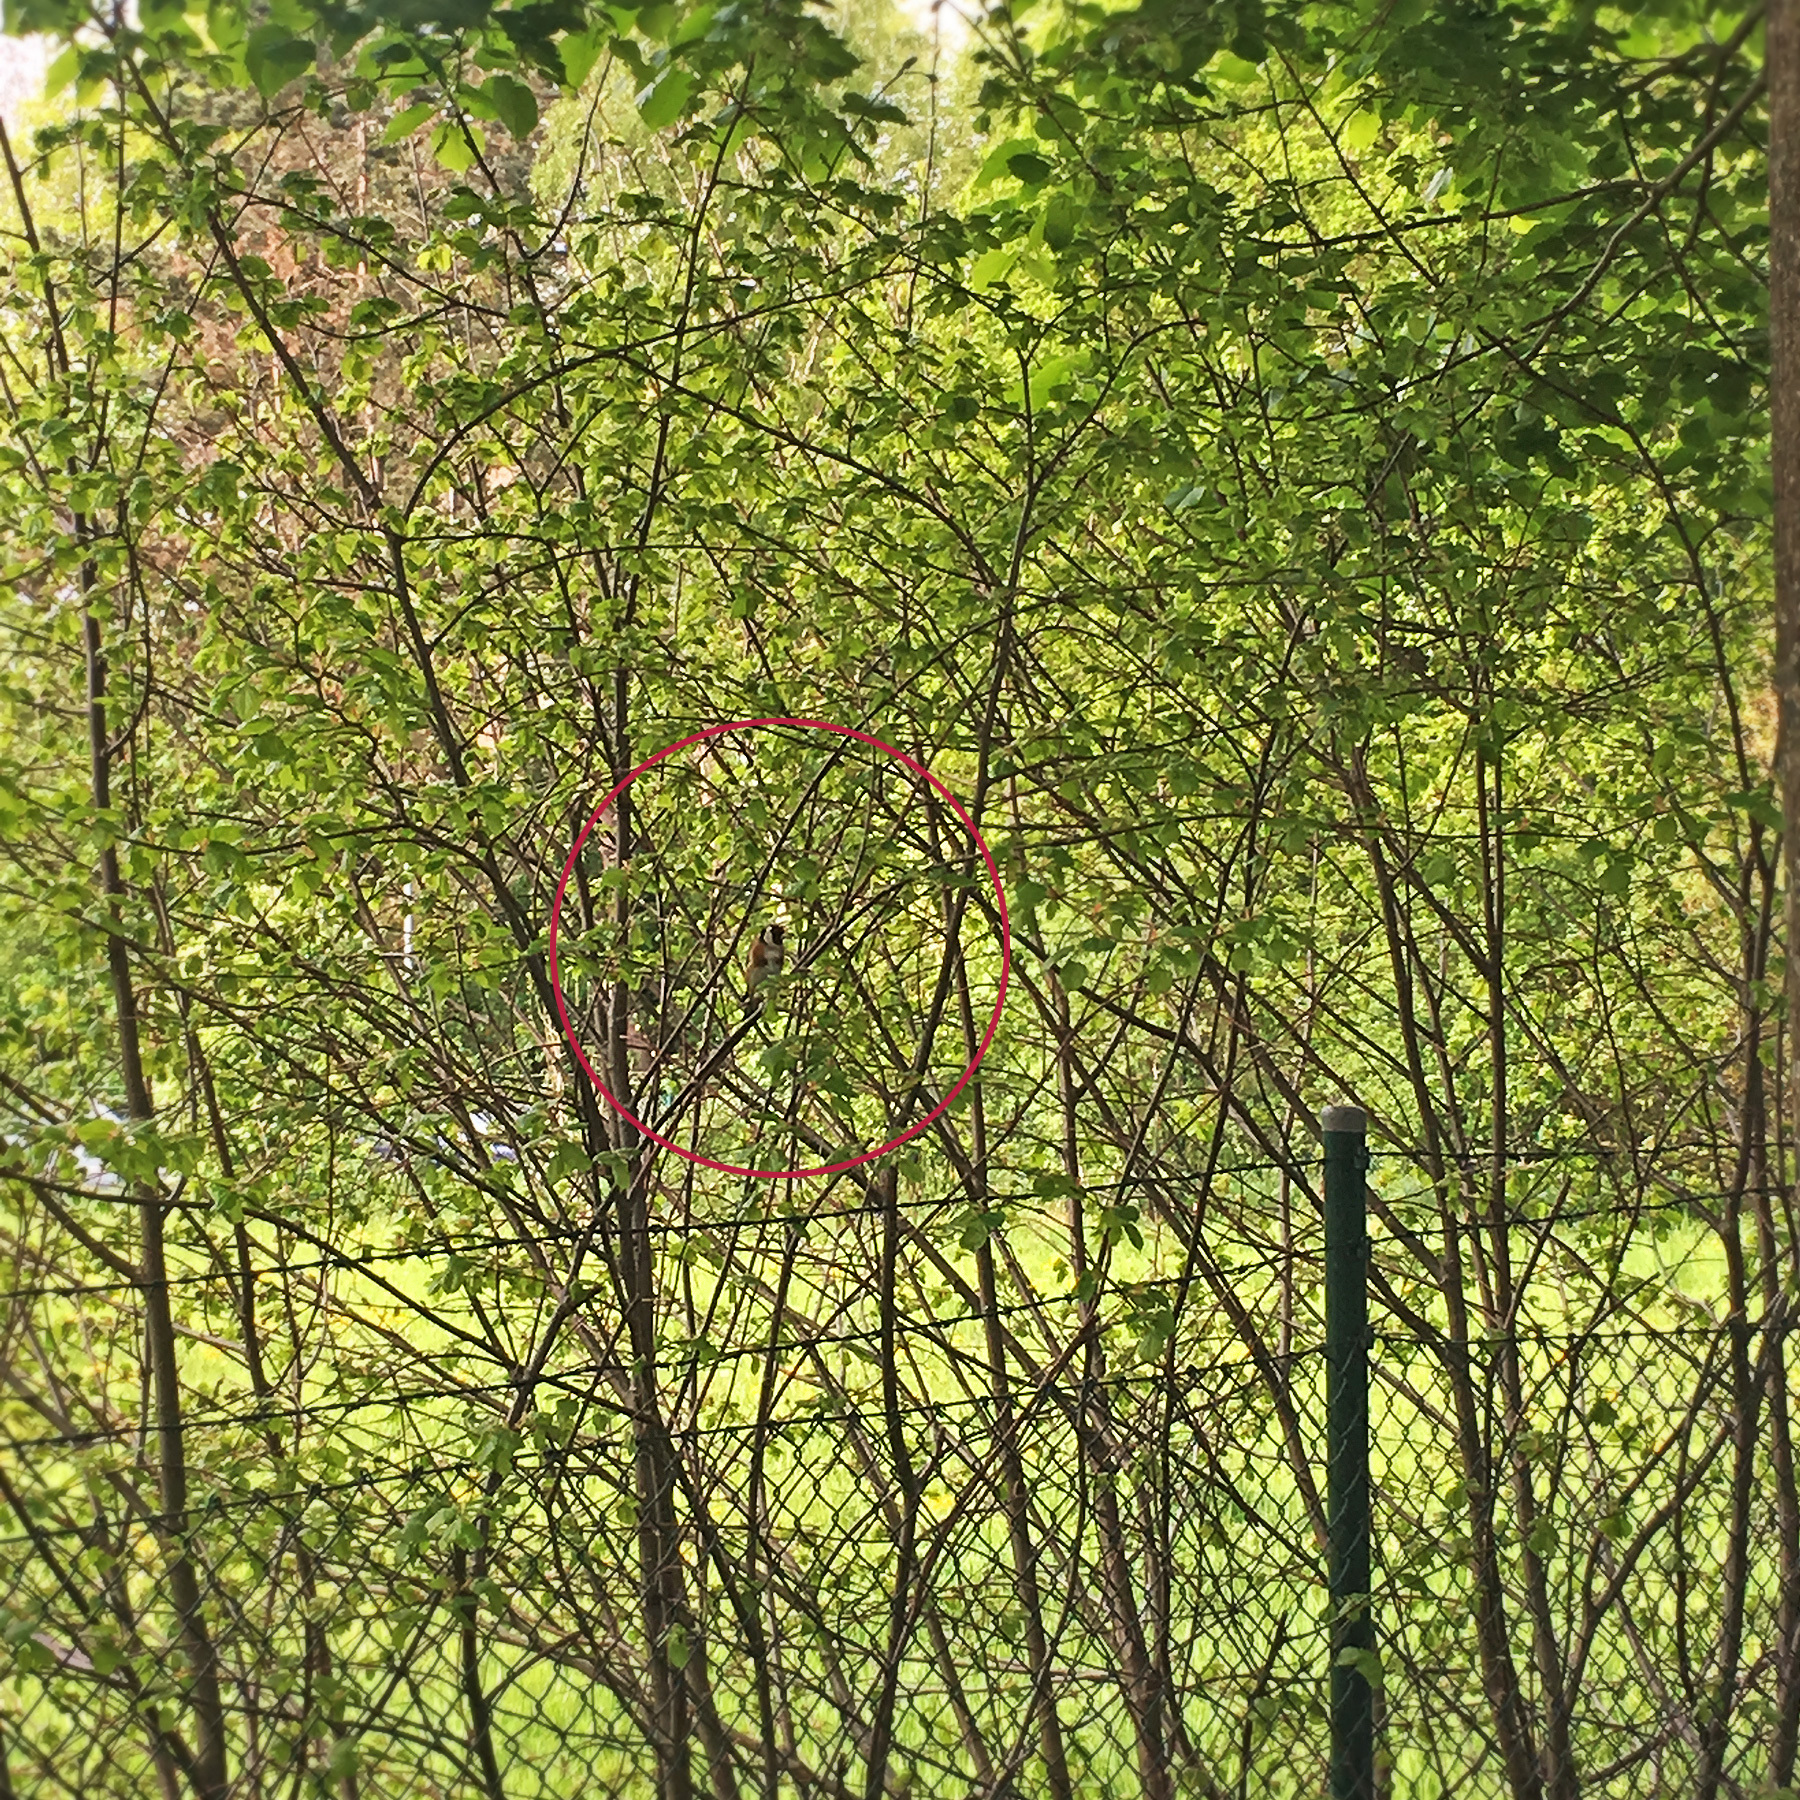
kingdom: Animalia
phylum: Chordata
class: Aves
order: Passeriformes
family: Fringillidae
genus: Carduelis
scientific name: Carduelis carduelis
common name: European goldfinch
